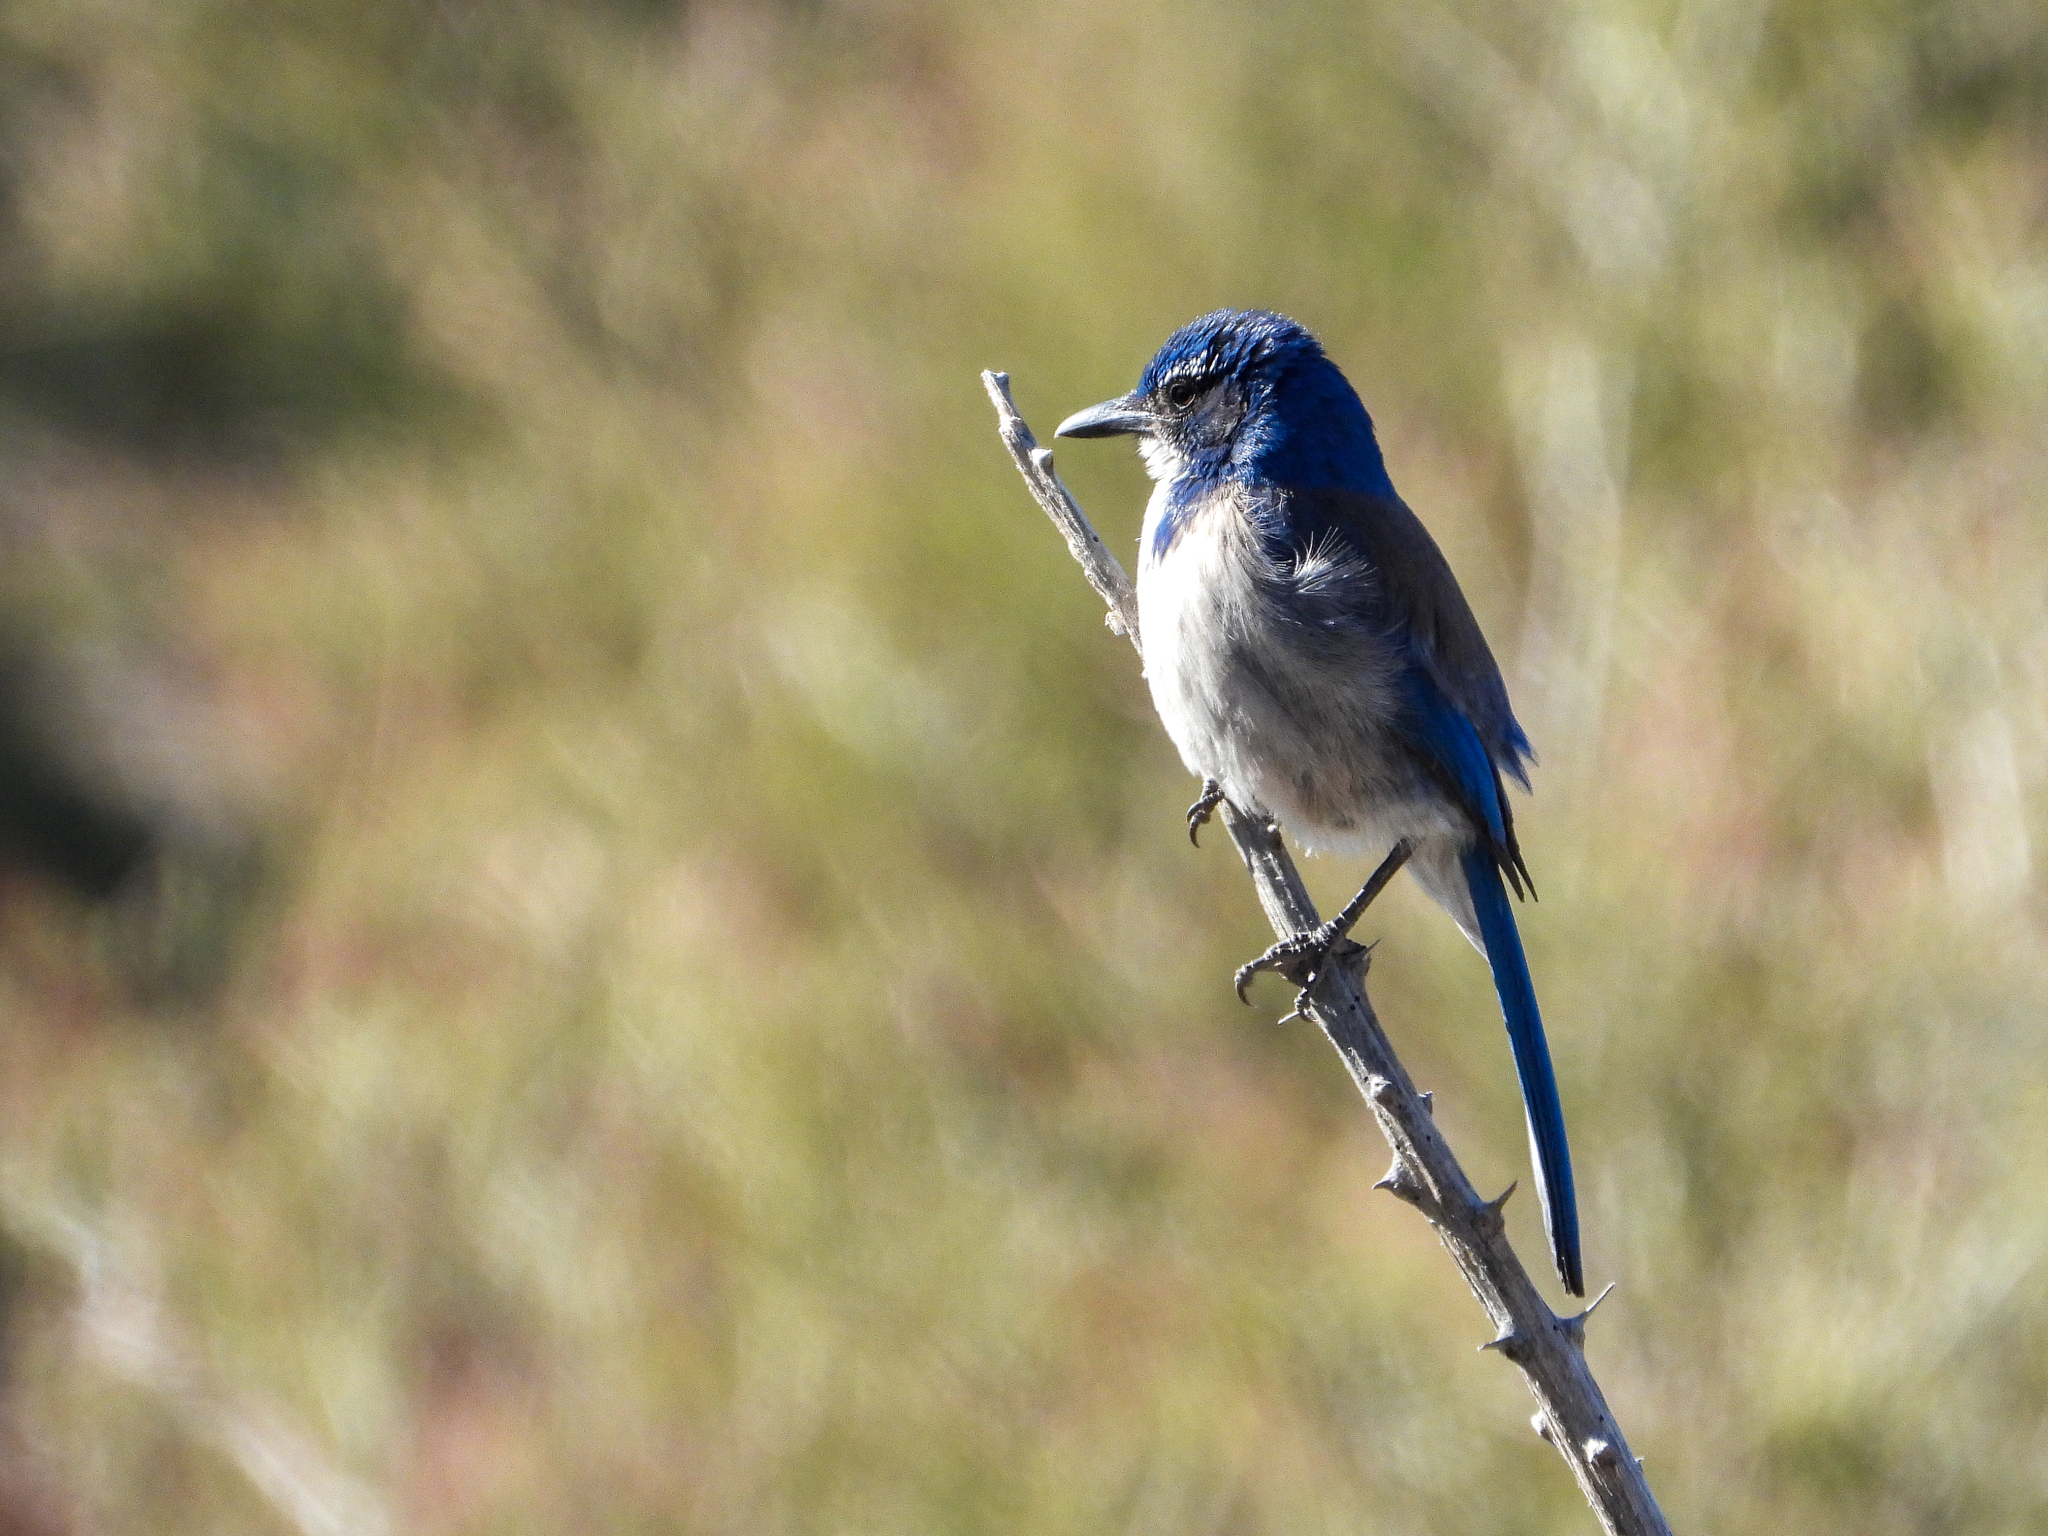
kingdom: Animalia
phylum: Chordata
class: Aves
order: Passeriformes
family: Corvidae
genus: Aphelocoma
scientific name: Aphelocoma californica
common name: California scrub-jay
